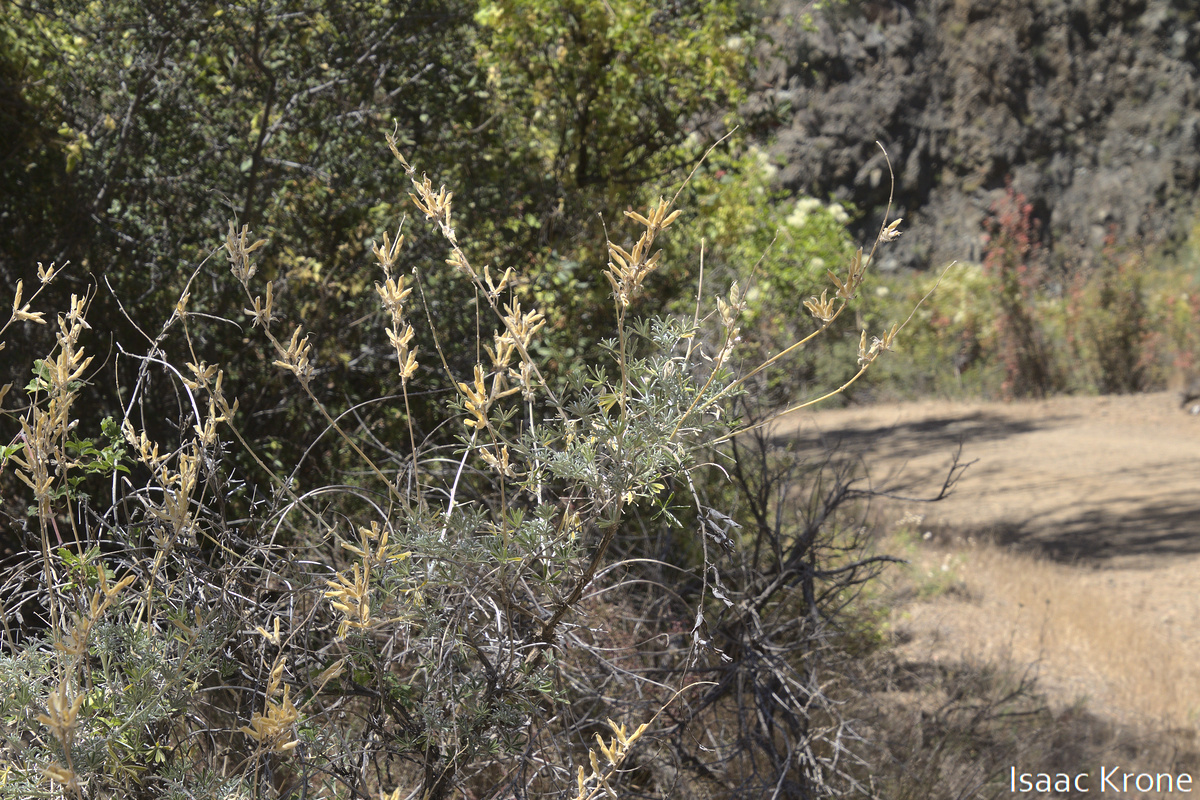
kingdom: Plantae
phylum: Tracheophyta
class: Magnoliopsida
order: Fabales
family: Fabaceae
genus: Lupinus
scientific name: Lupinus albifrons
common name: Foothill lupine
